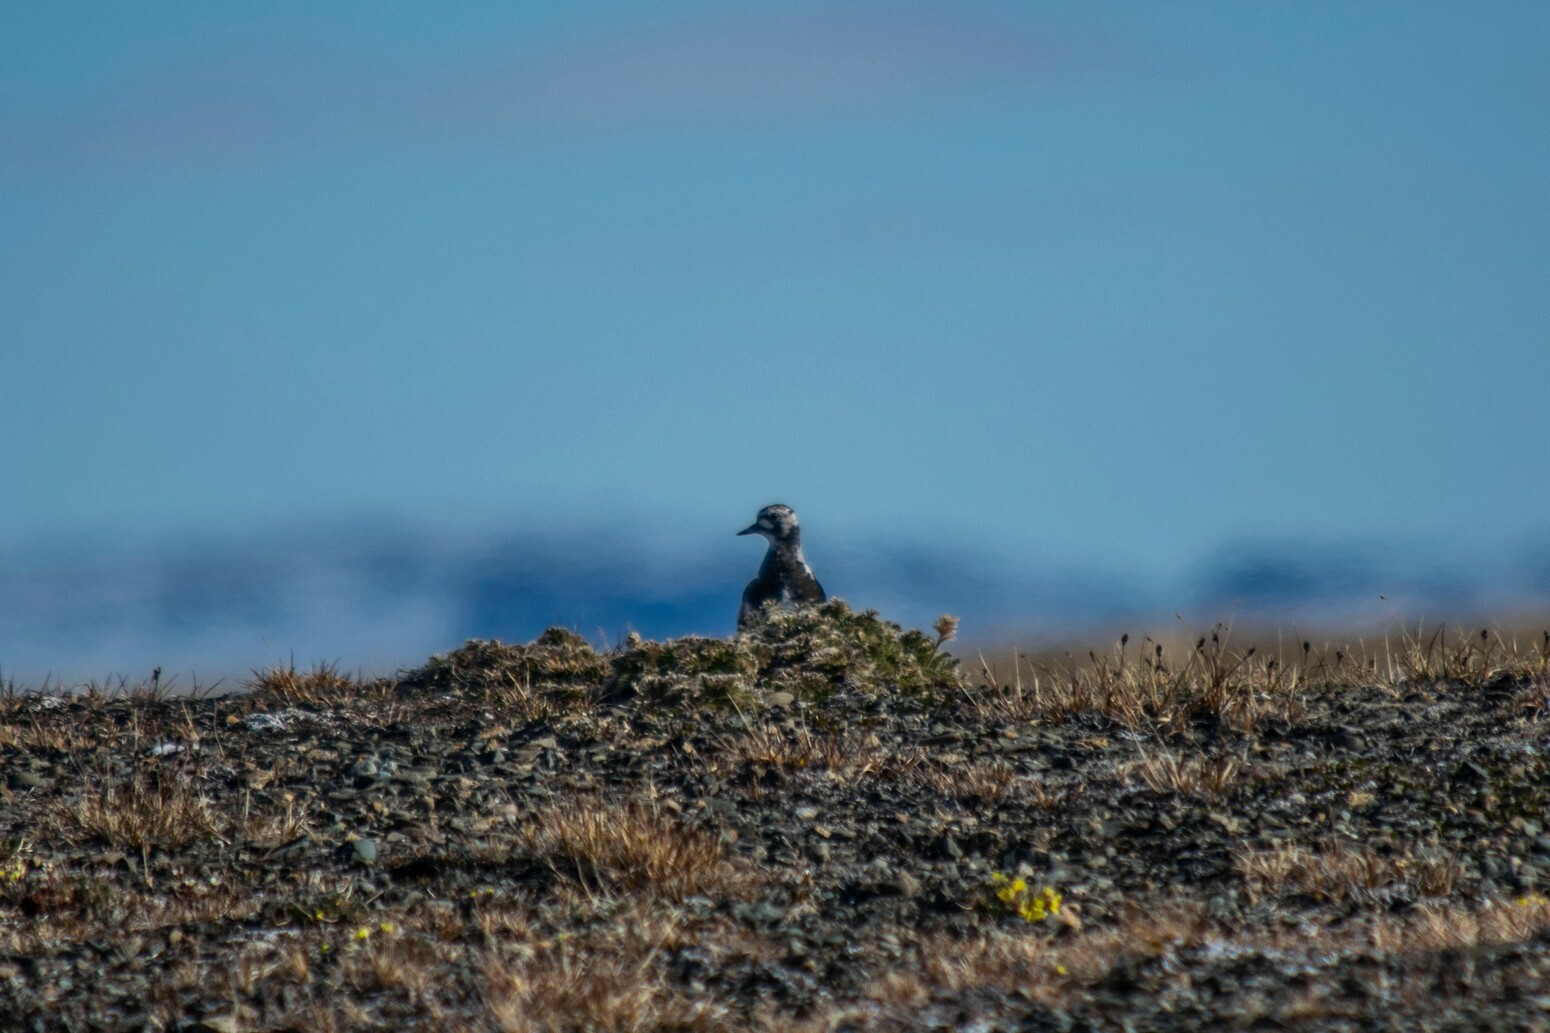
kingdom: Animalia
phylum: Chordata
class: Aves
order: Charadriiformes
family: Scolopacidae
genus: Arenaria
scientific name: Arenaria interpres
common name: Ruddy turnstone
